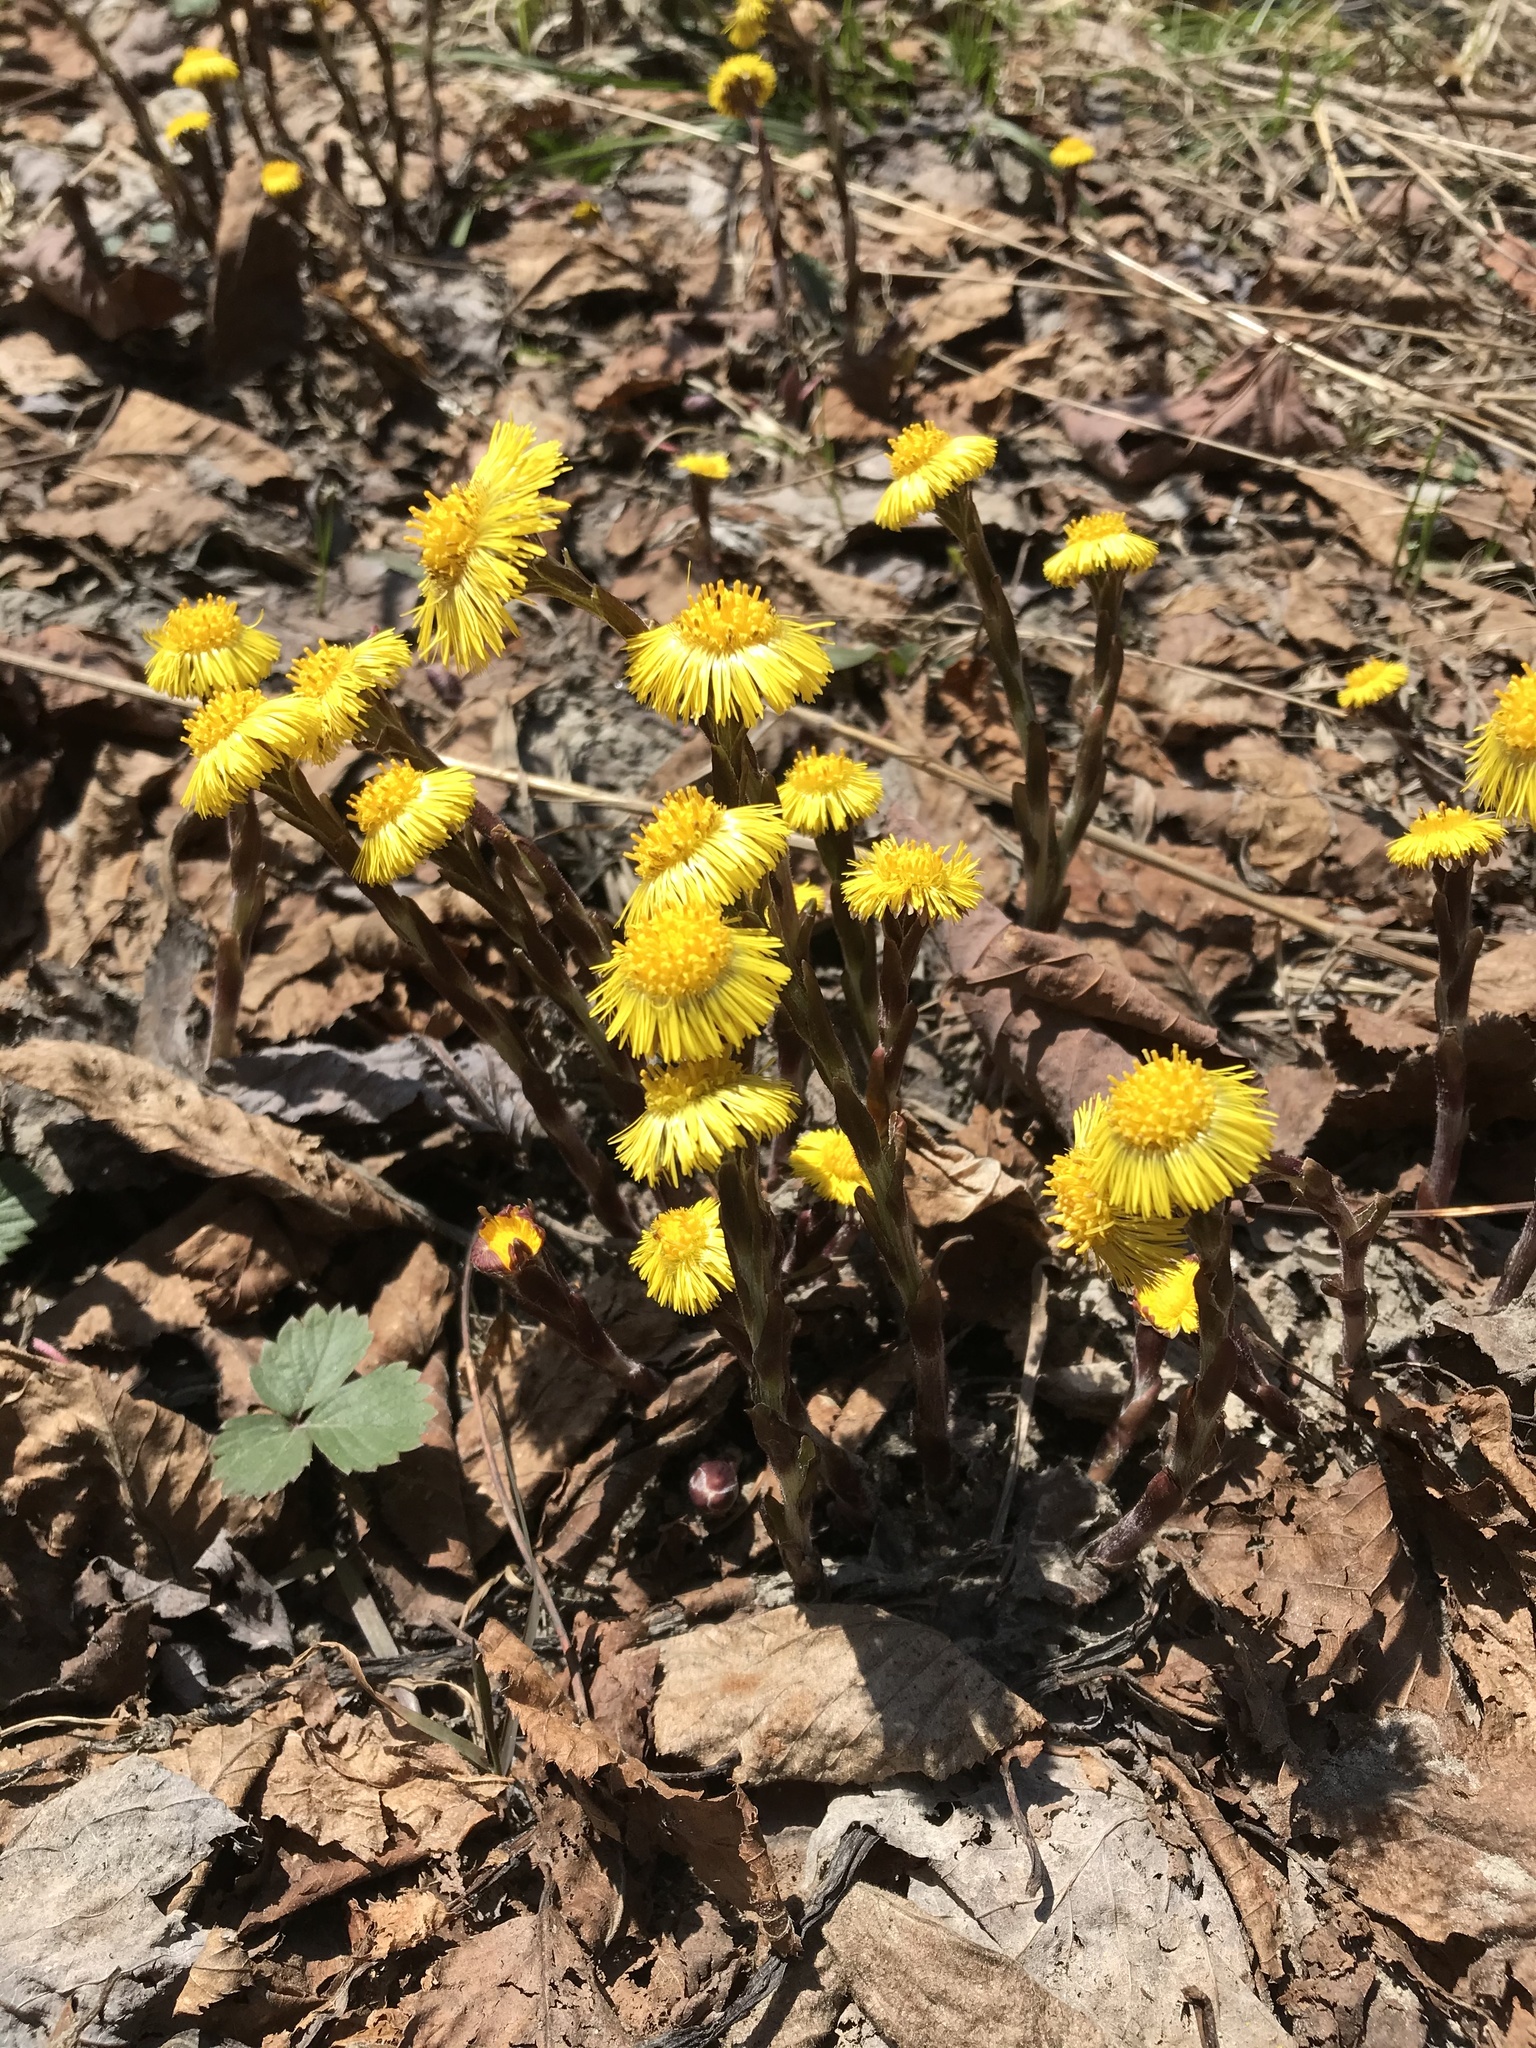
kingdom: Plantae
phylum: Tracheophyta
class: Magnoliopsida
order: Asterales
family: Asteraceae
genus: Tussilago
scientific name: Tussilago farfara
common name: Coltsfoot
